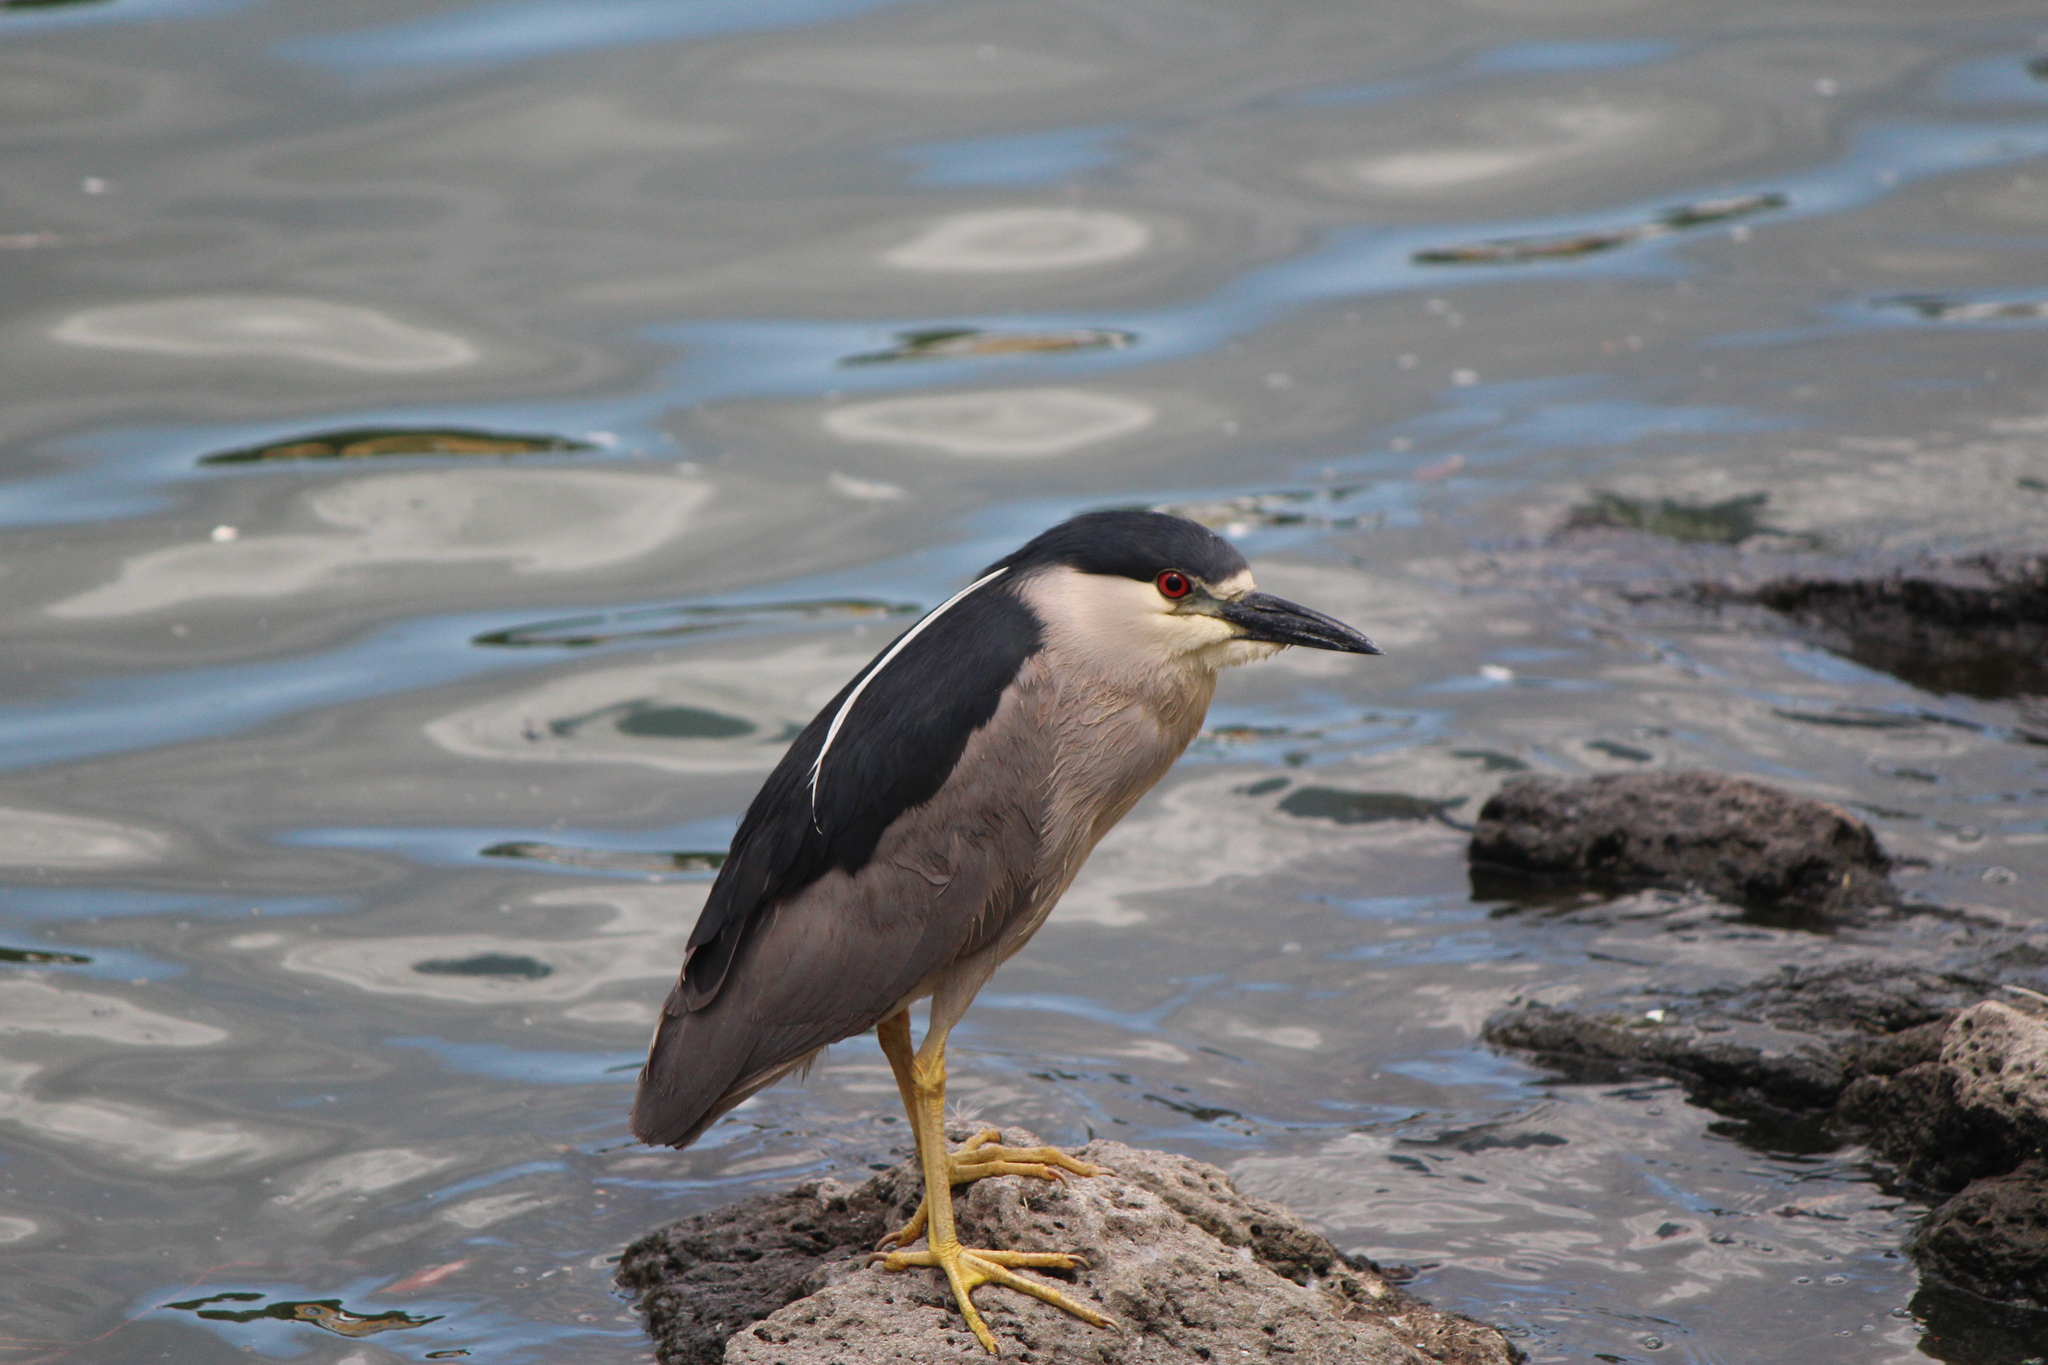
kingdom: Animalia
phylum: Chordata
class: Aves
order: Pelecaniformes
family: Ardeidae
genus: Nycticorax
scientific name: Nycticorax nycticorax
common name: Black-crowned night heron
